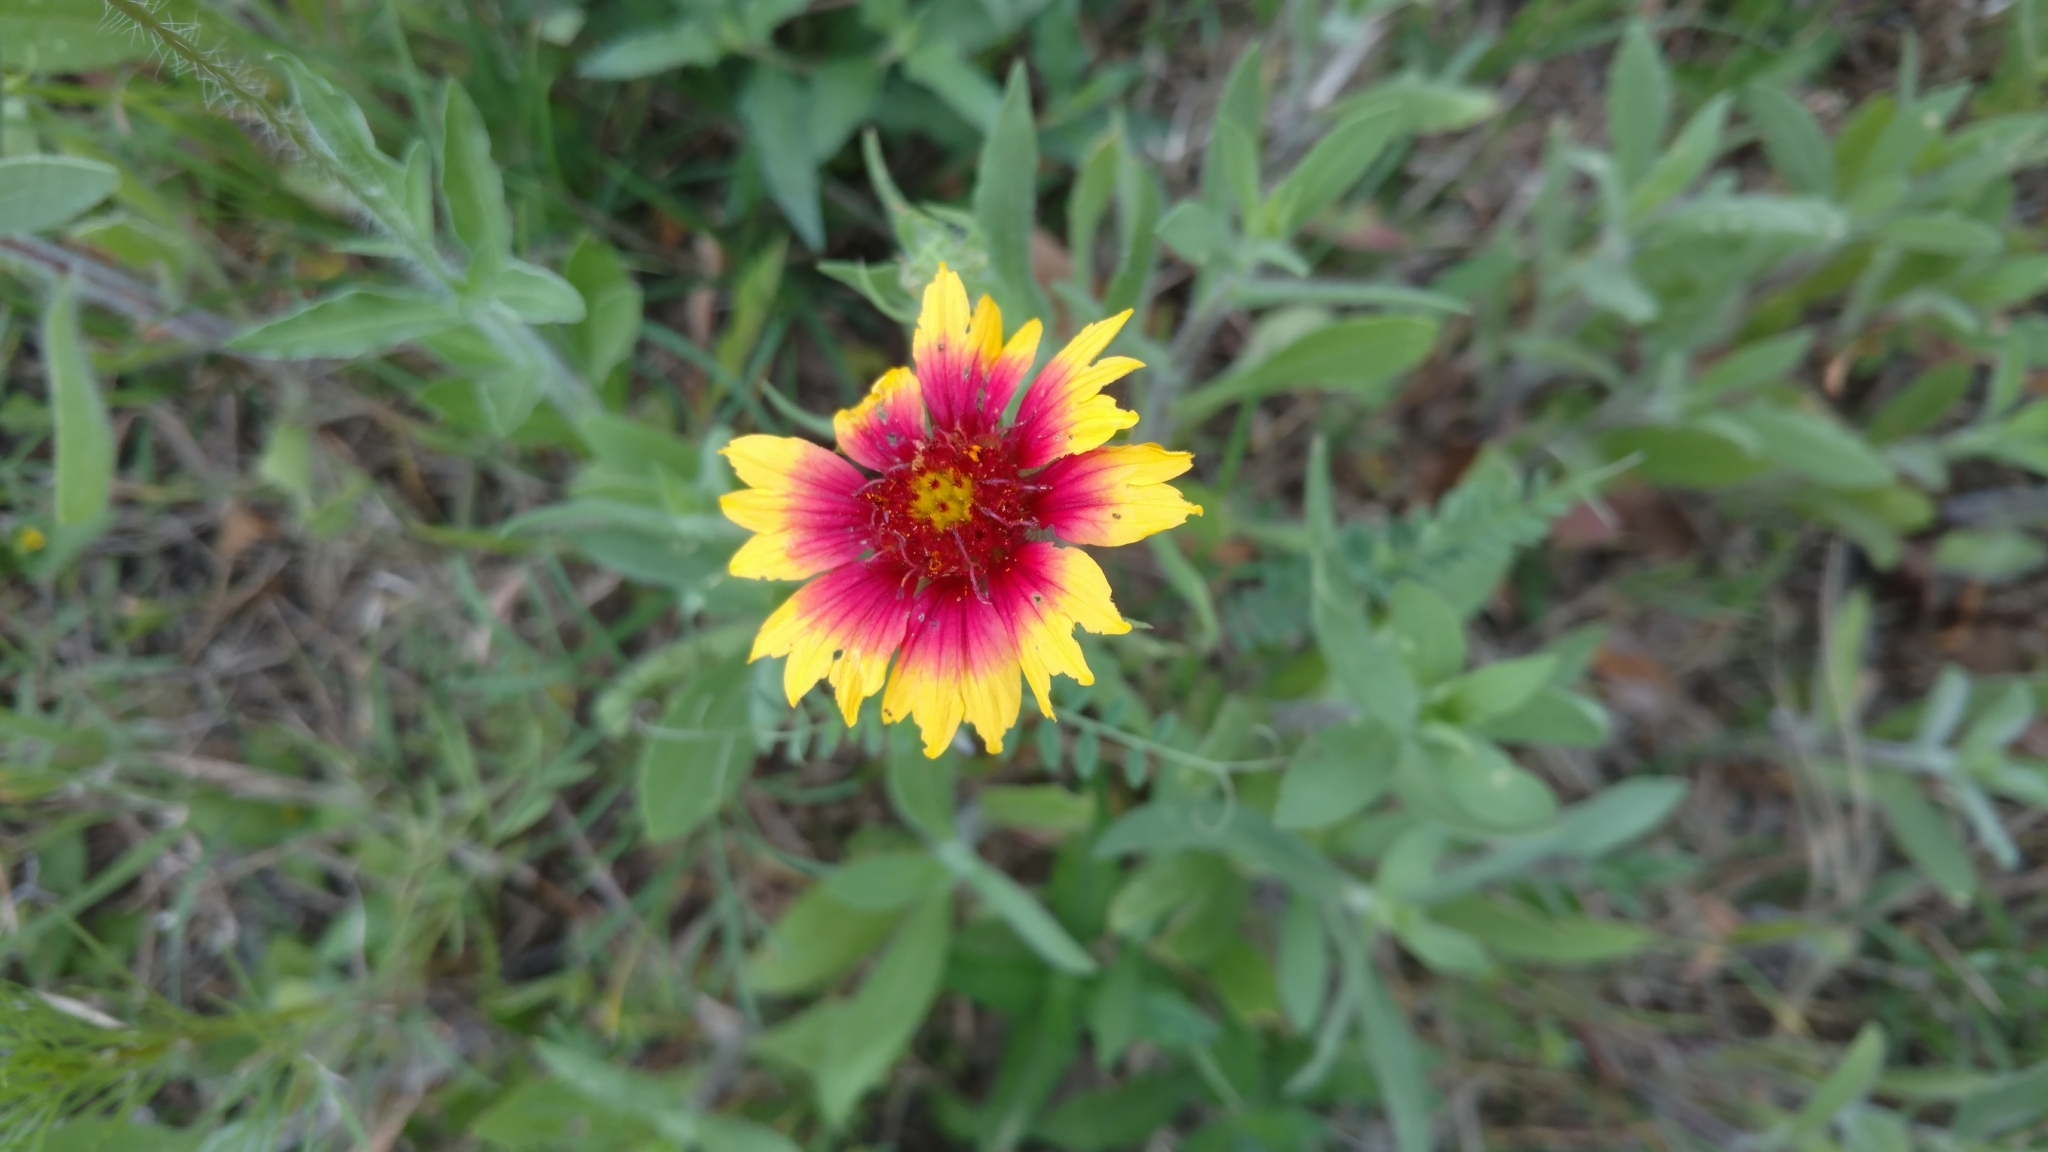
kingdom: Plantae
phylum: Tracheophyta
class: Magnoliopsida
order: Asterales
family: Asteraceae
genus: Gaillardia
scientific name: Gaillardia pulchella
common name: Firewheel
